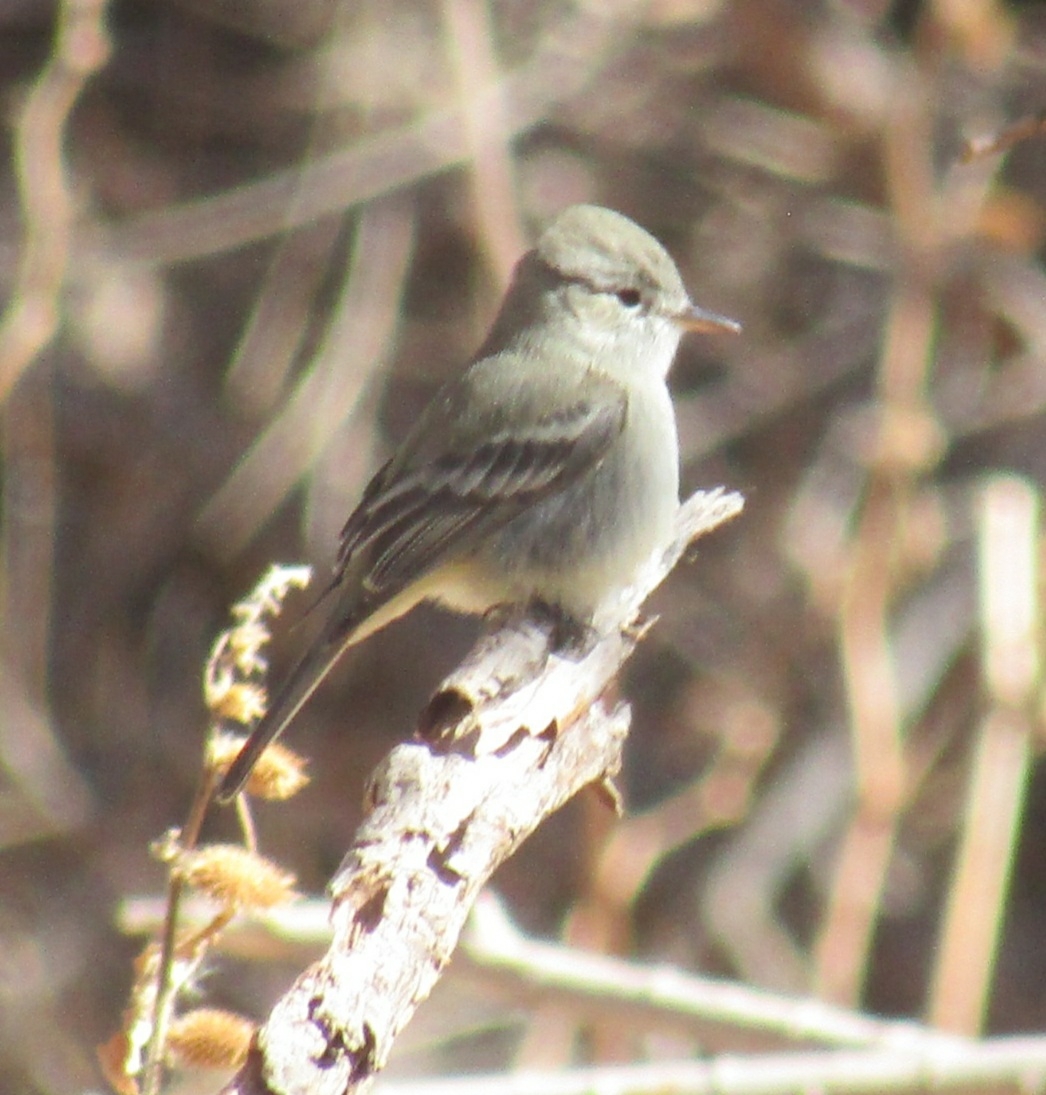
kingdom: Animalia
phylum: Chordata
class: Aves
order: Passeriformes
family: Tyrannidae
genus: Empidonax
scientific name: Empidonax hammondii
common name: Hammond's flycatcher
